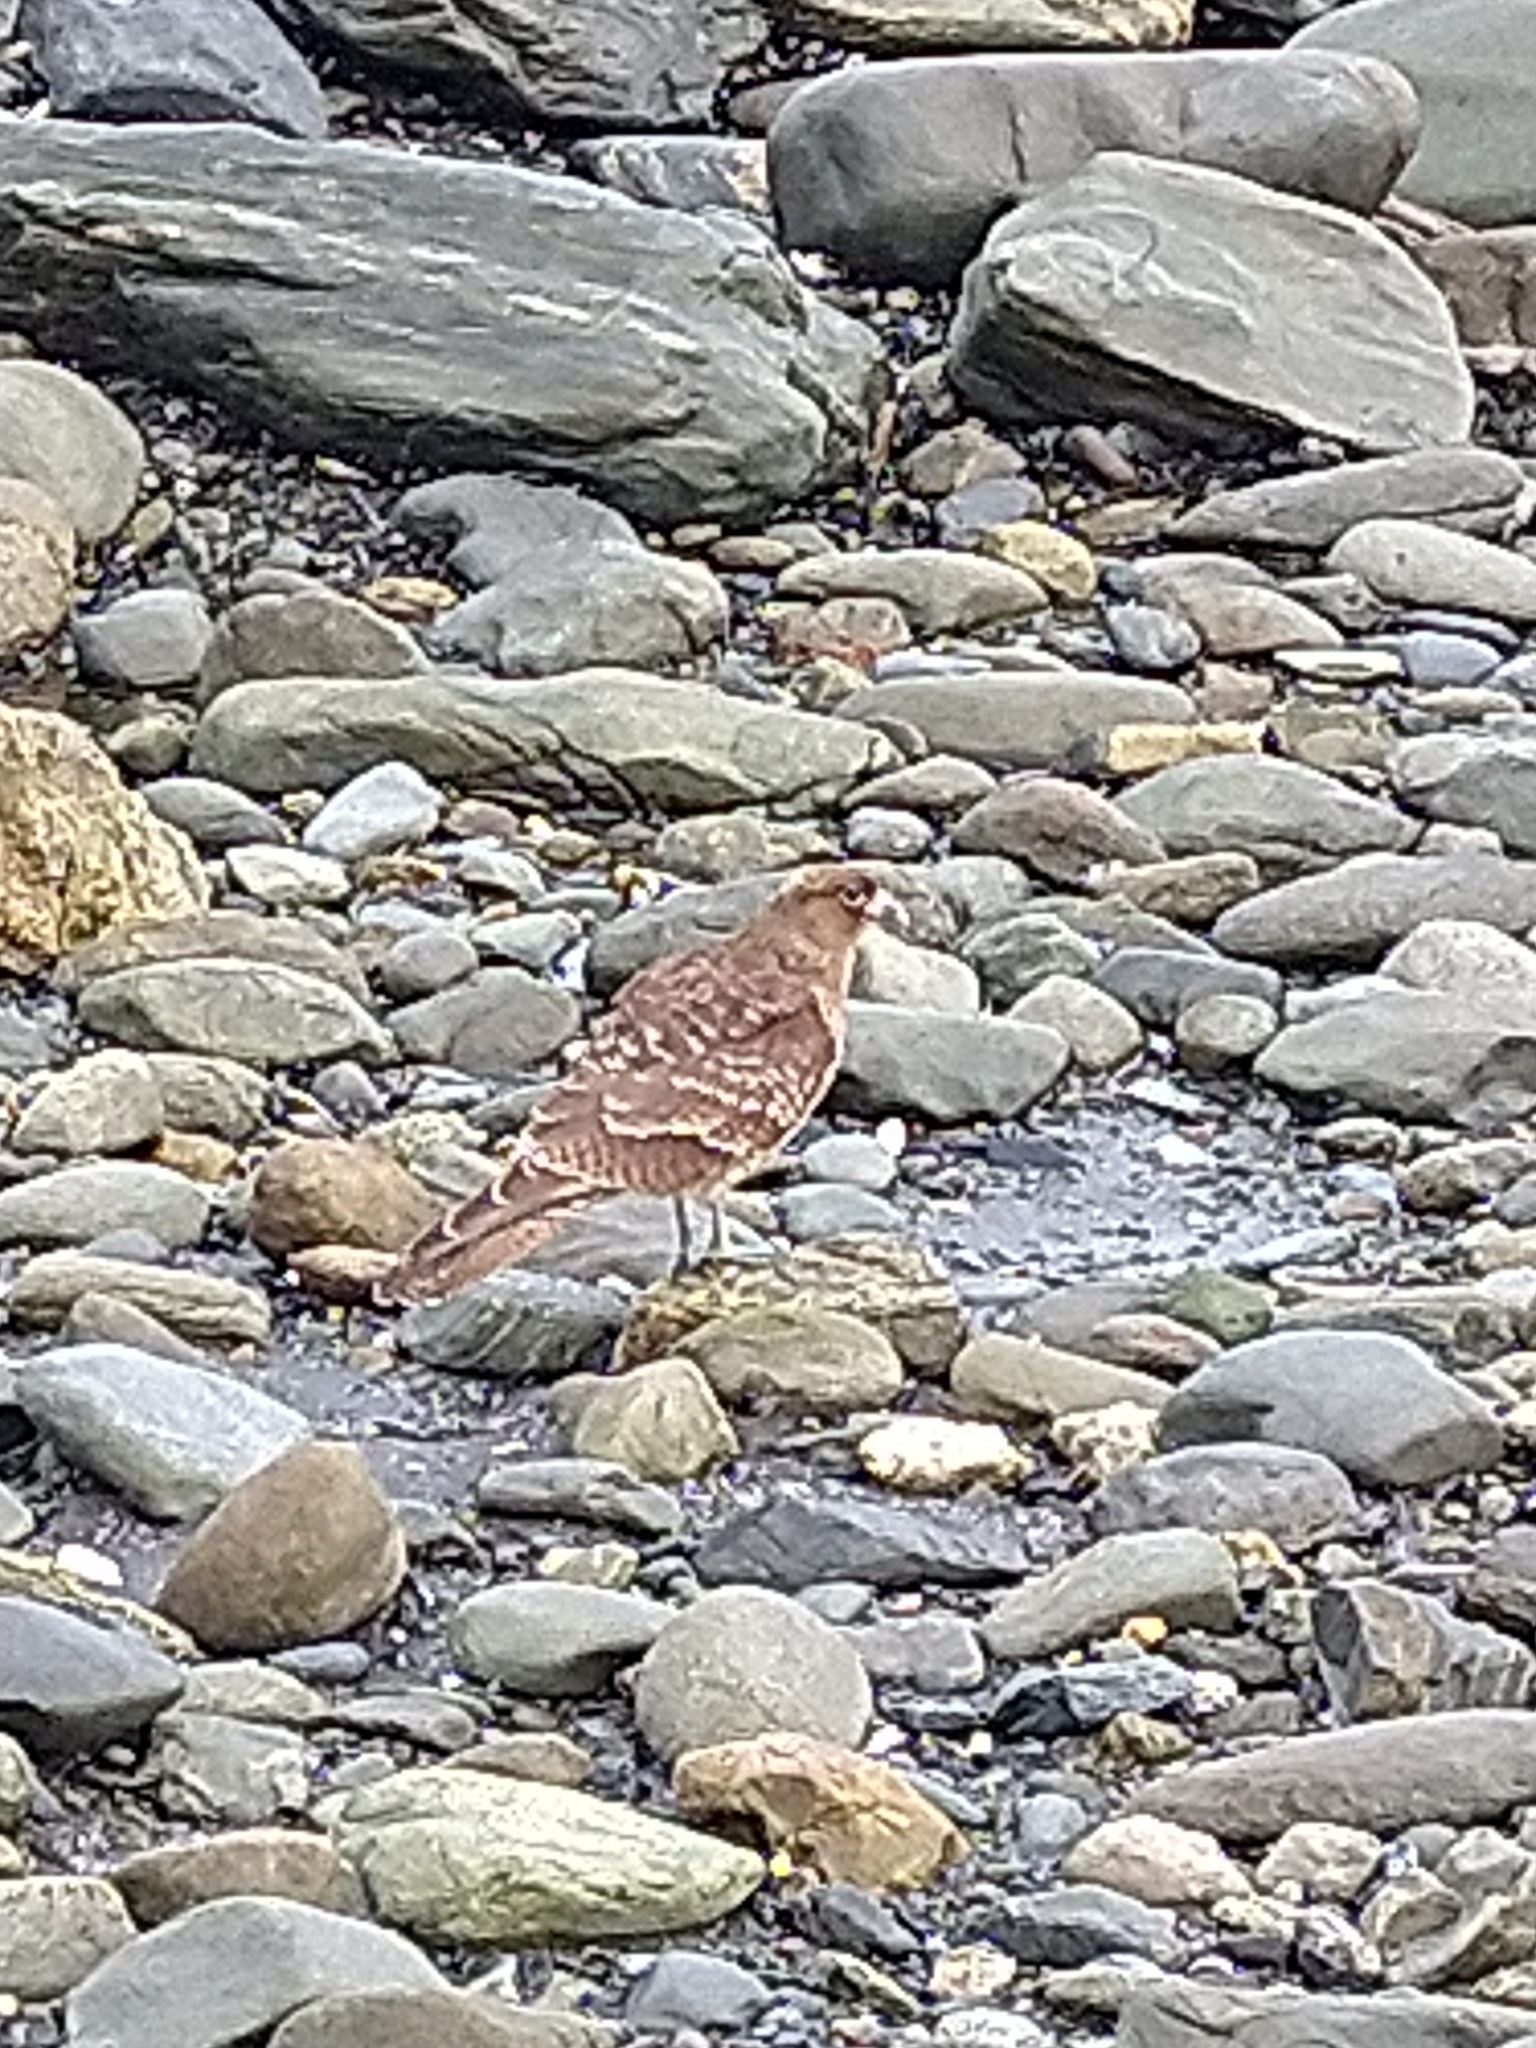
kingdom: Animalia
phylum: Chordata
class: Aves
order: Falconiformes
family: Falconidae
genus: Daptrius
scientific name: Daptrius
